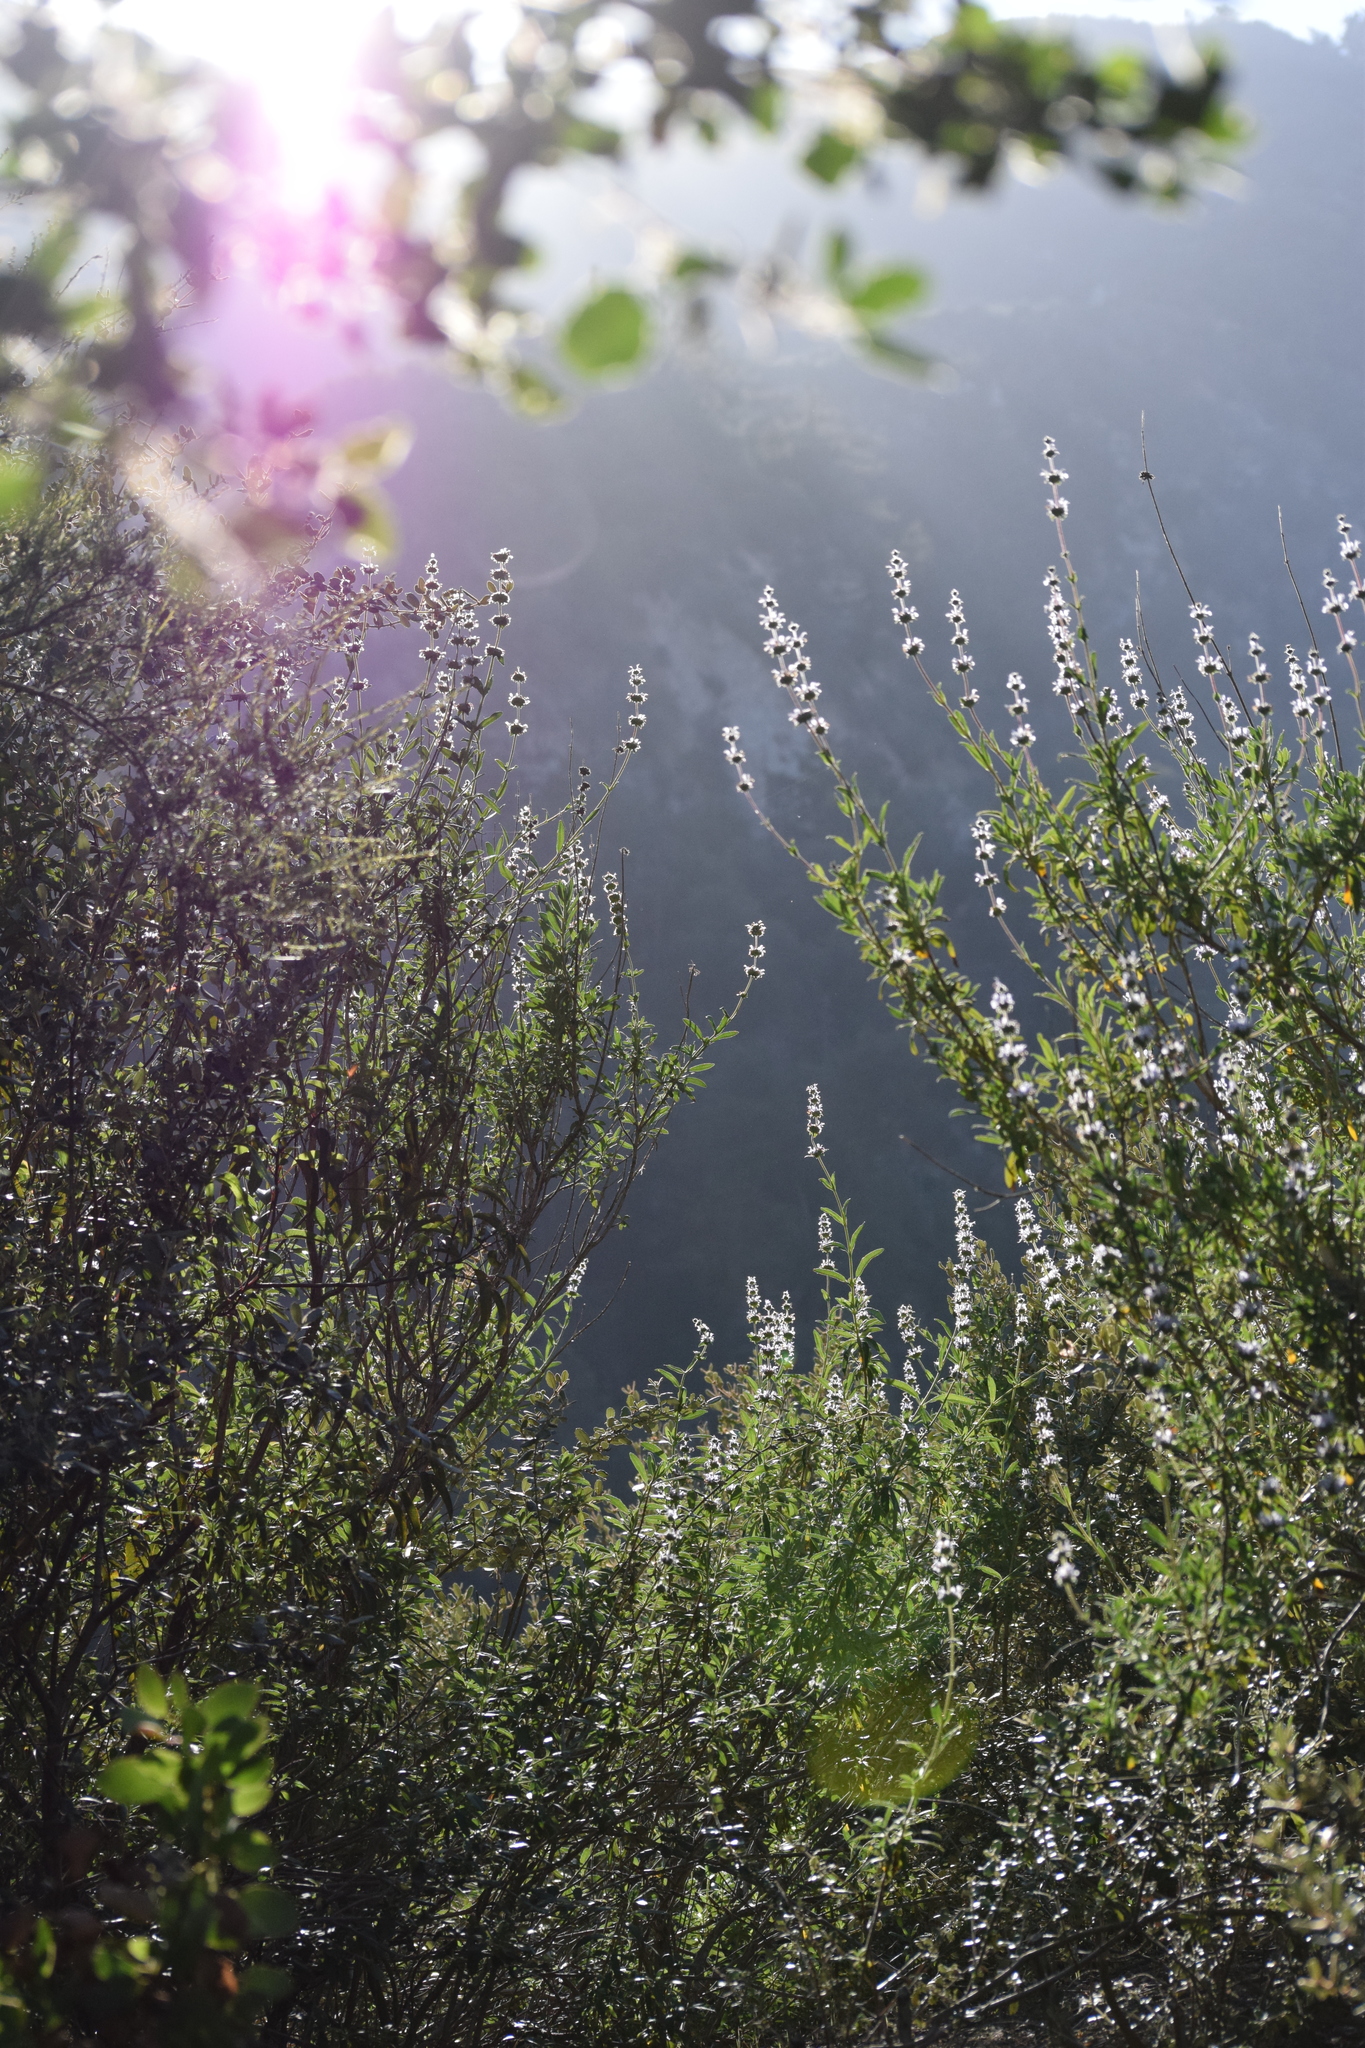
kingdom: Plantae
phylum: Tracheophyta
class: Magnoliopsida
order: Lamiales
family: Lamiaceae
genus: Salvia
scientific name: Salvia mellifera
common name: Black sage
